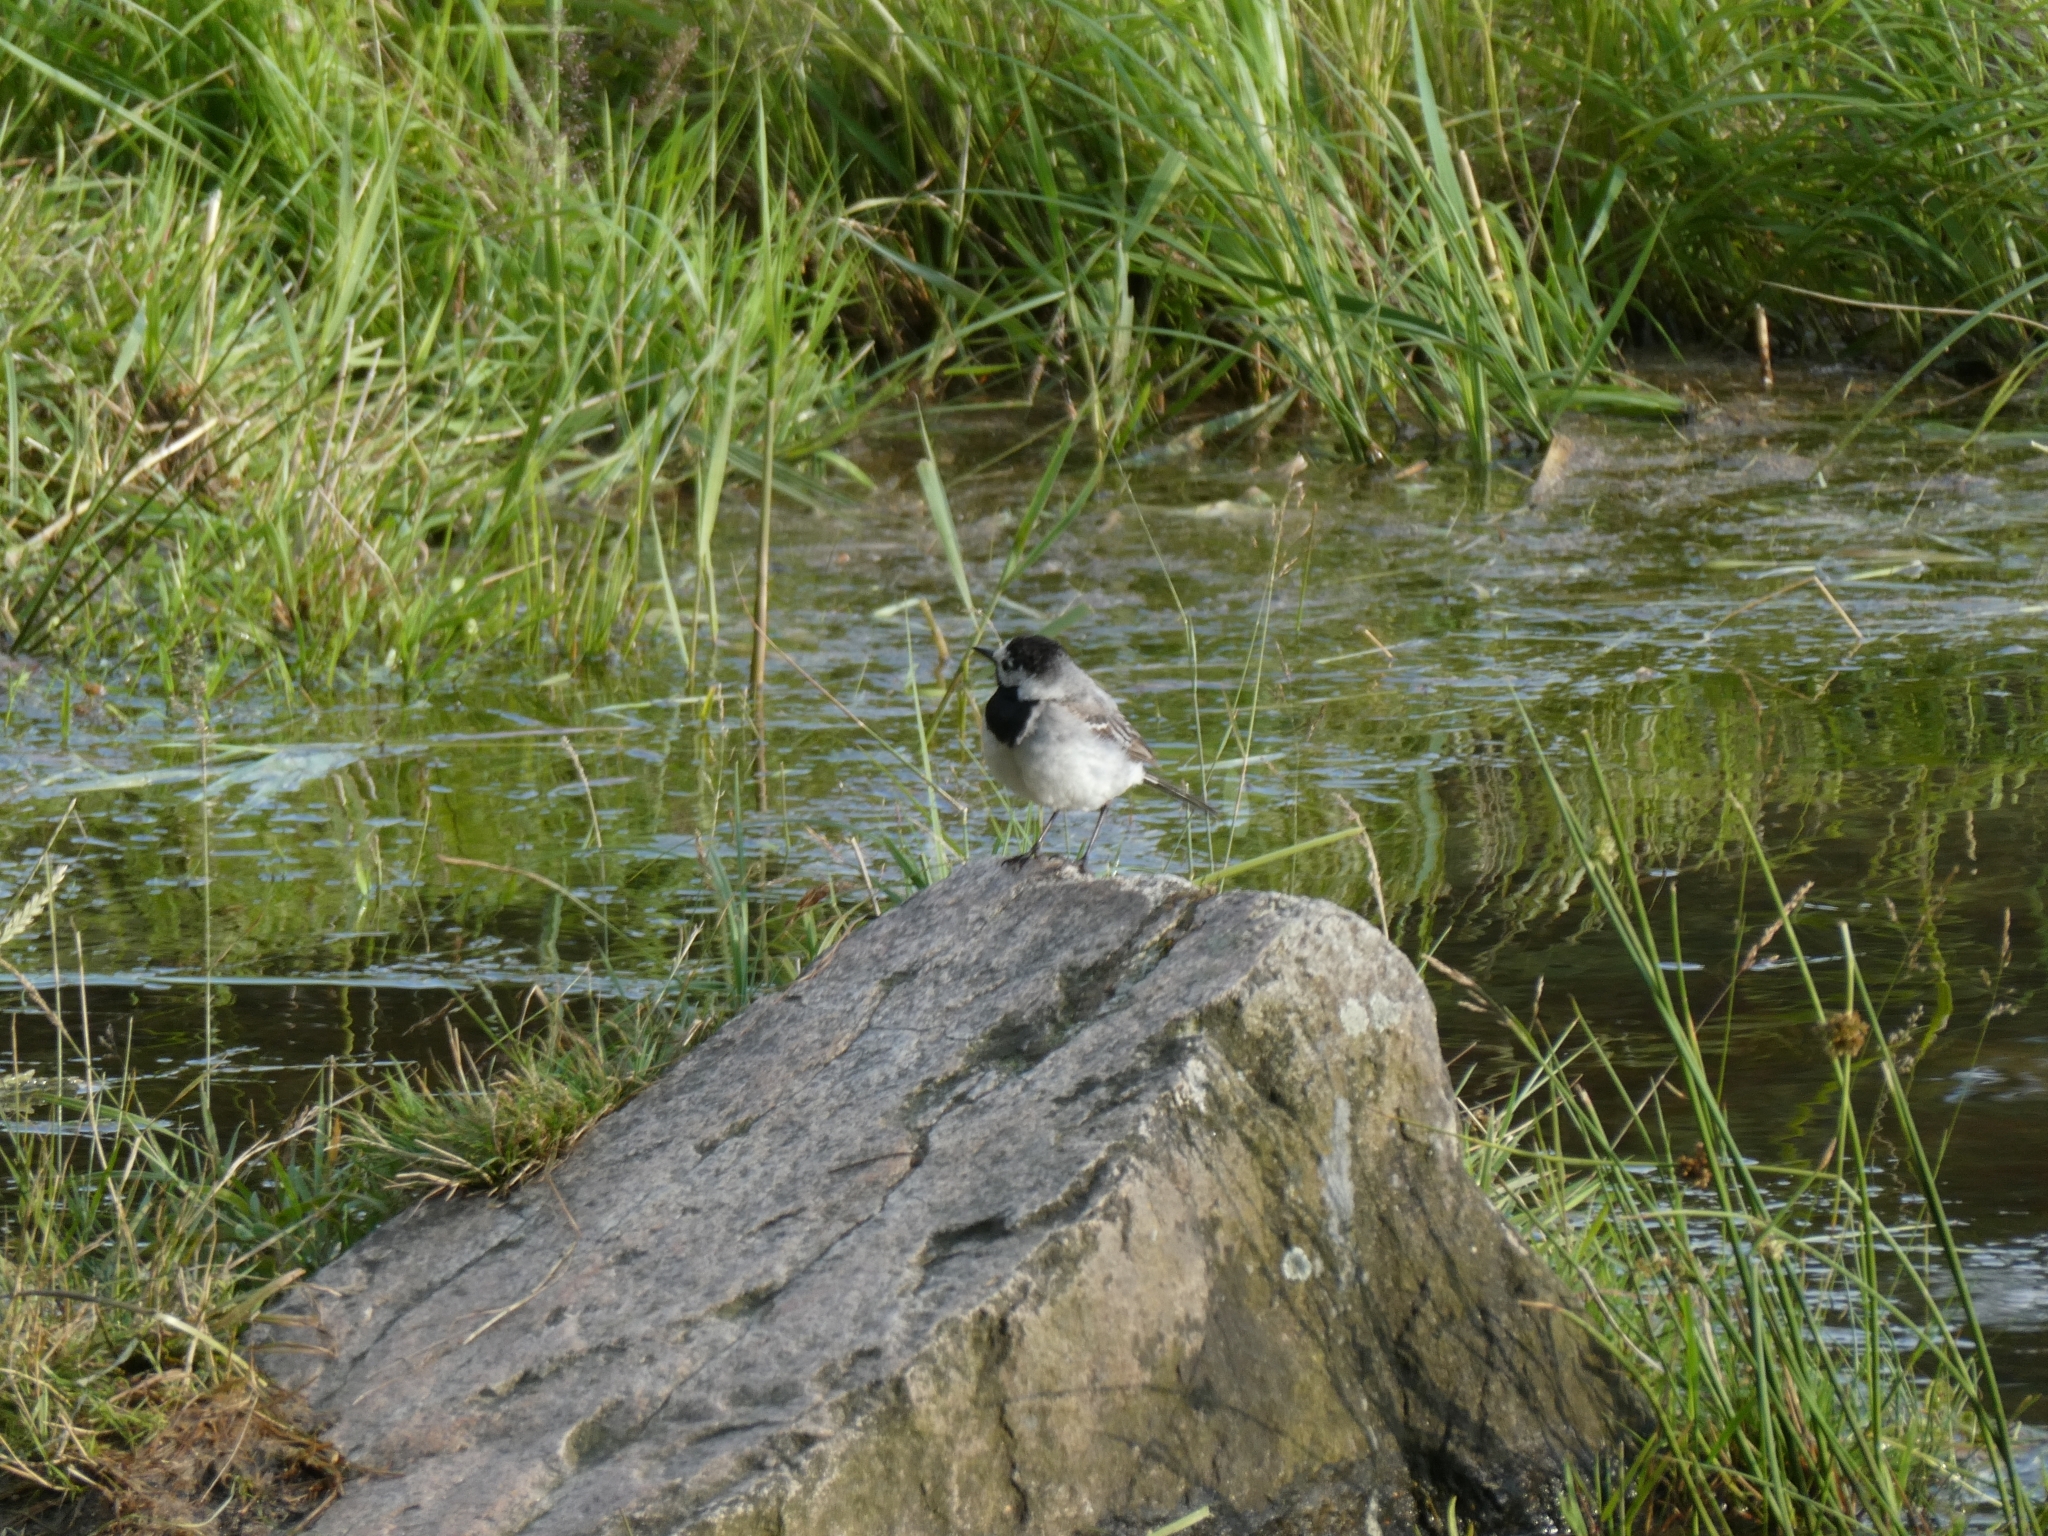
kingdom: Animalia
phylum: Chordata
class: Aves
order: Passeriformes
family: Motacillidae
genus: Motacilla
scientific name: Motacilla alba
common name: White wagtail
